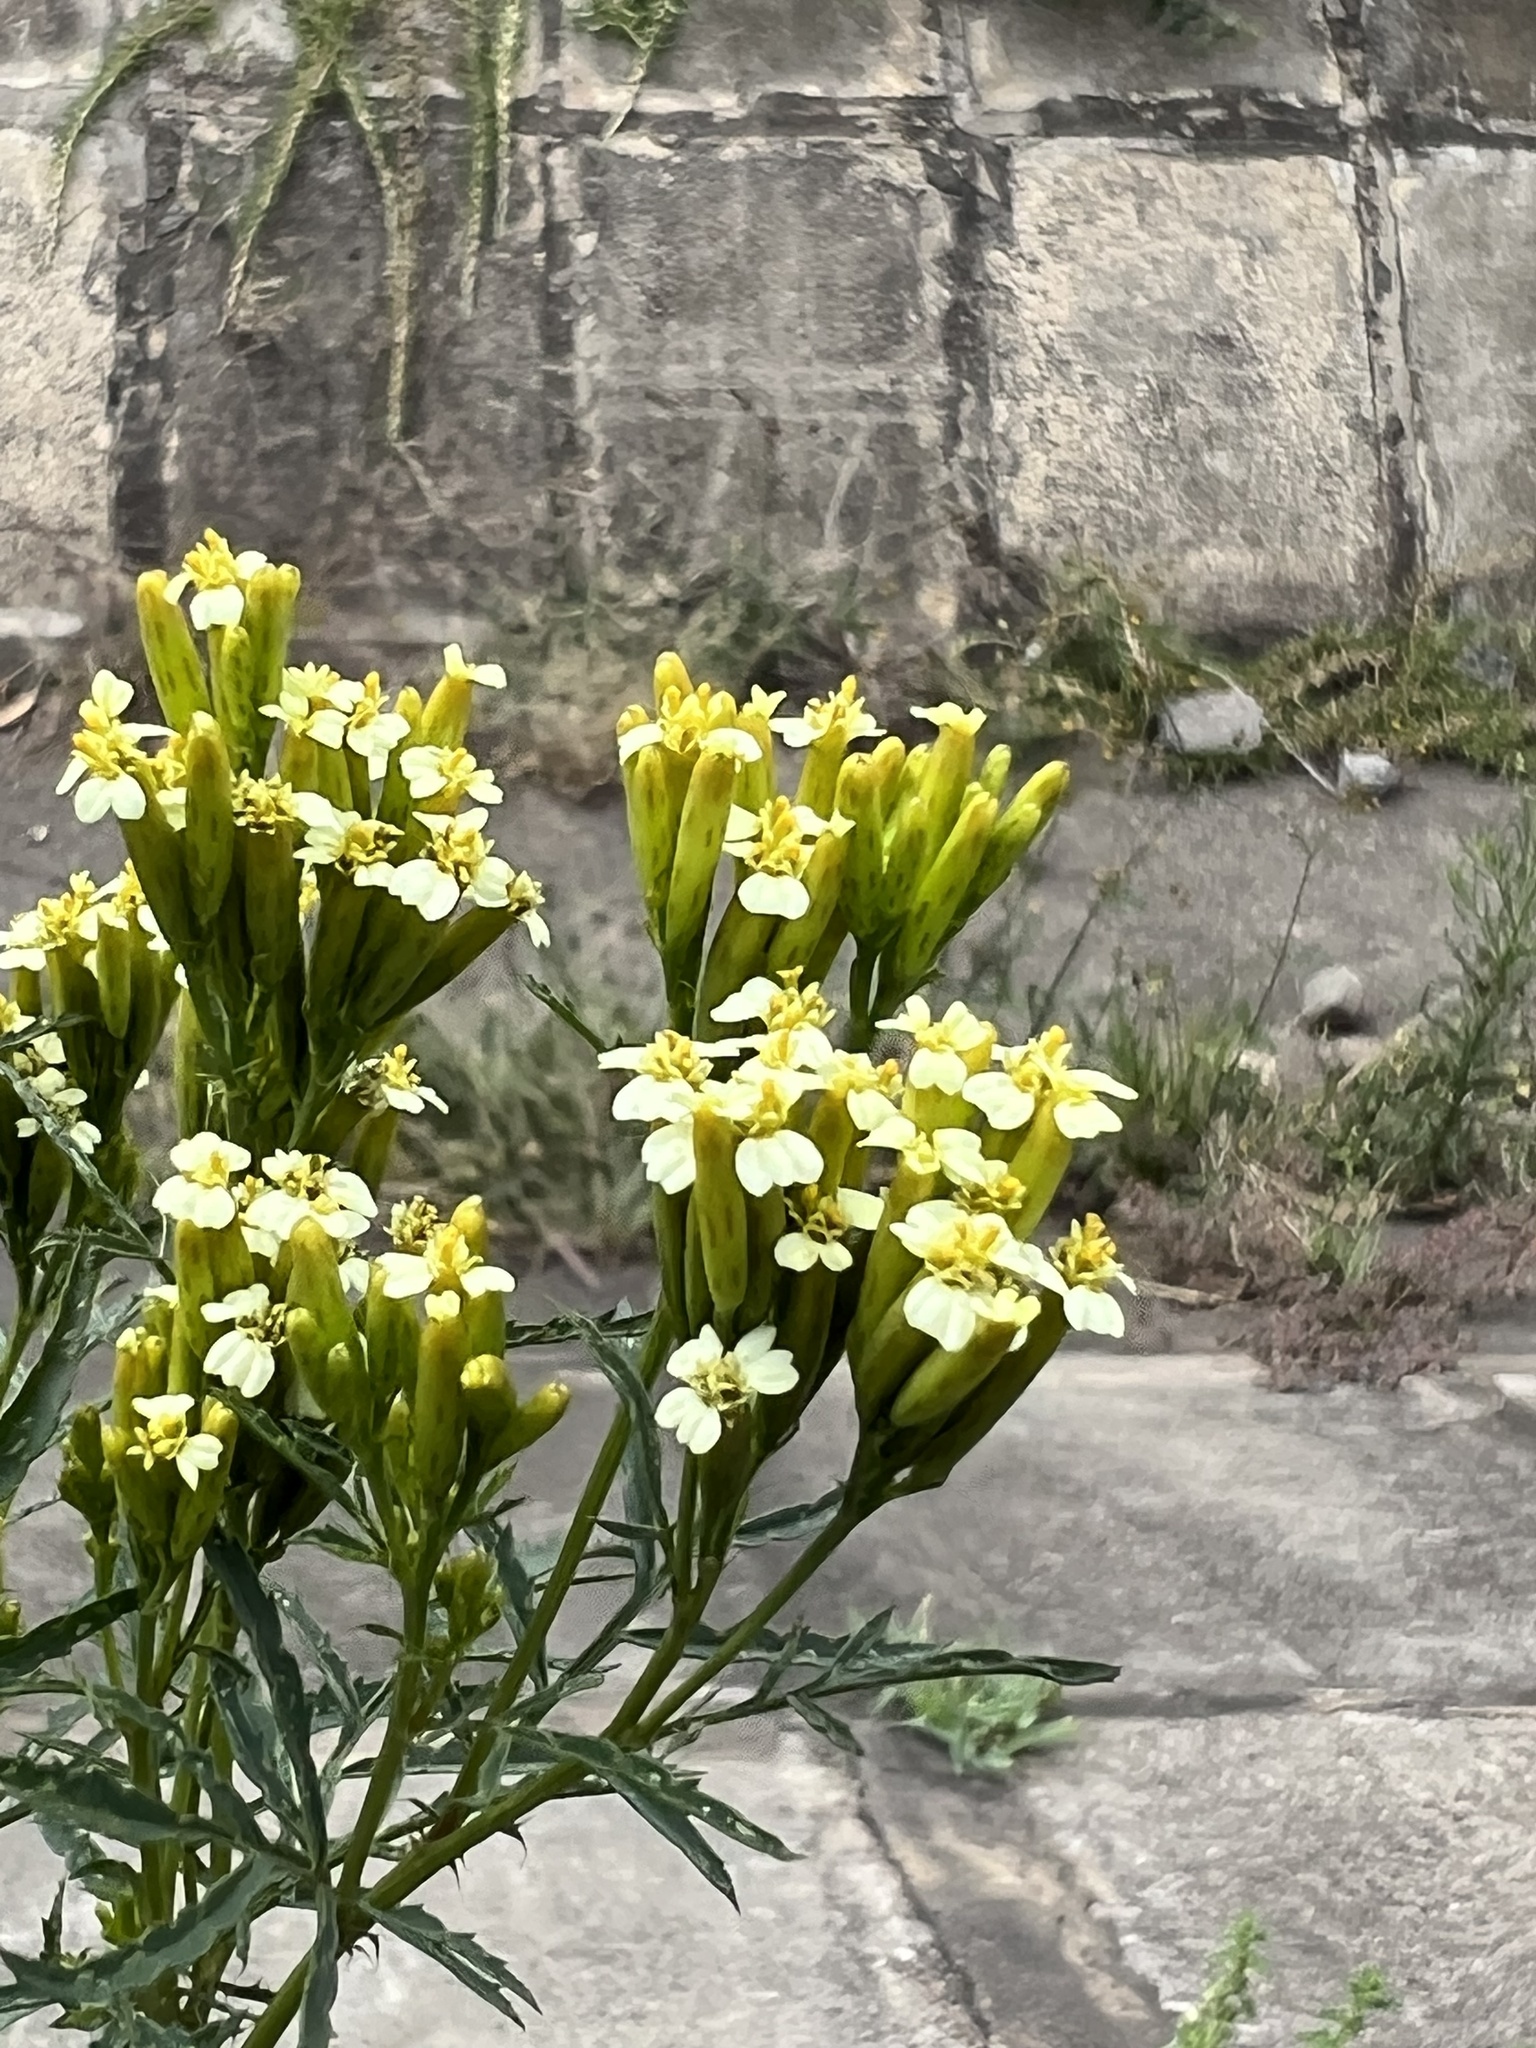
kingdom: Plantae
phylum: Tracheophyta
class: Magnoliopsida
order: Asterales
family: Asteraceae
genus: Tagetes
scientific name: Tagetes minuta
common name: Muster john henry
